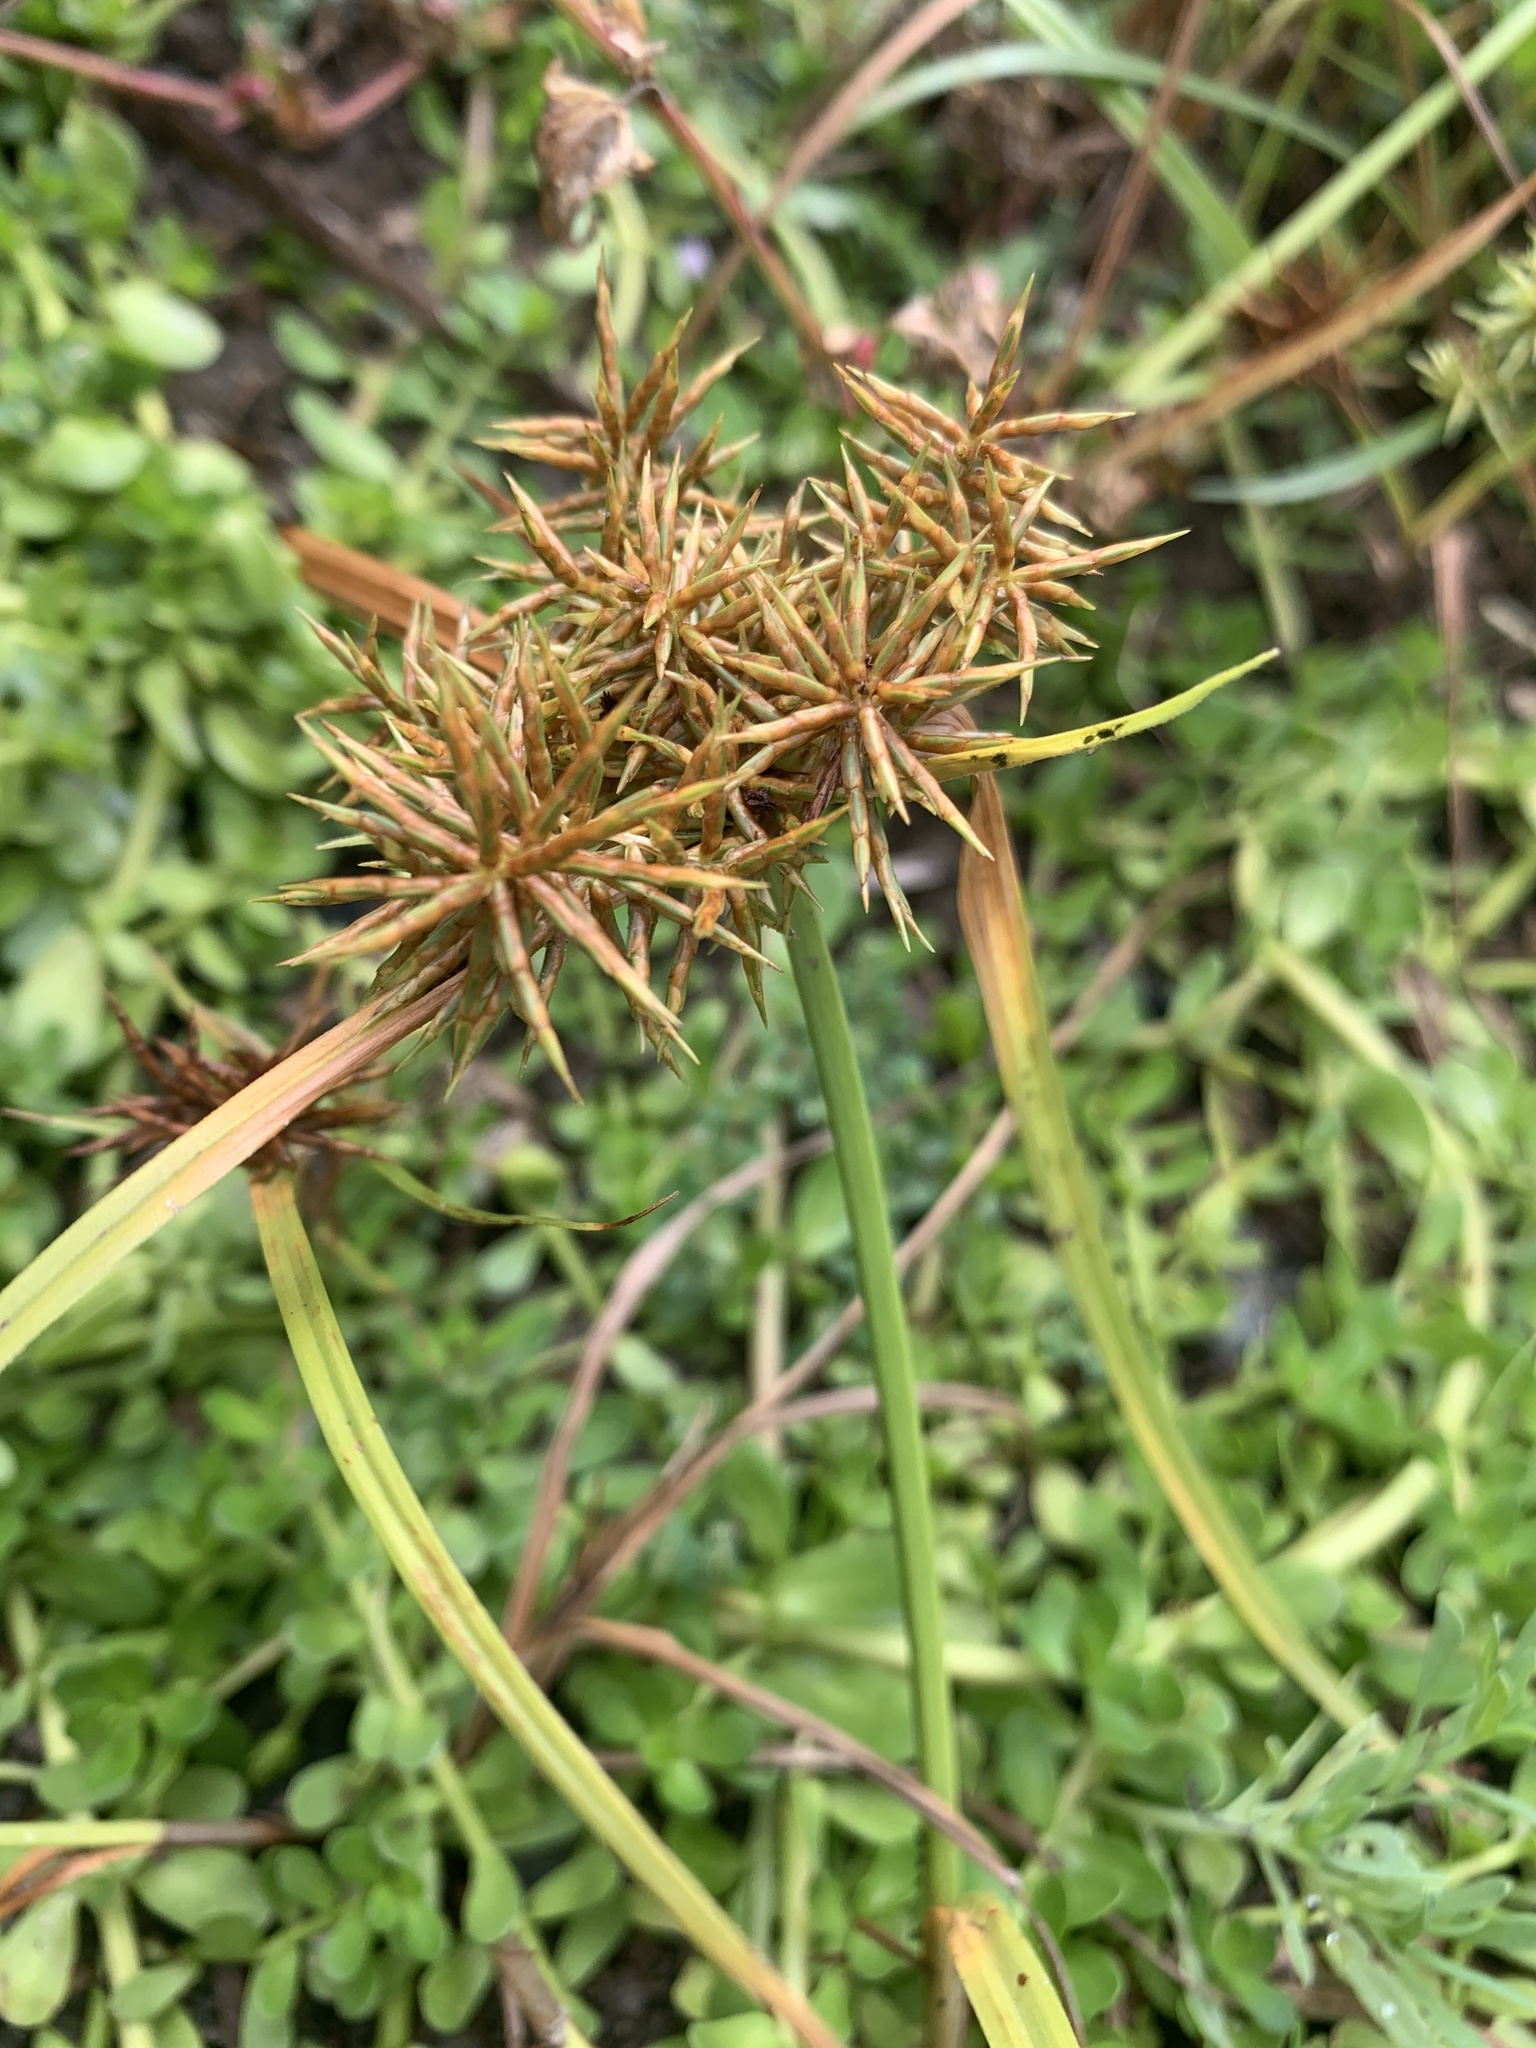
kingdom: Plantae
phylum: Tracheophyta
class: Liliopsida
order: Poales
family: Cyperaceae
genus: Cyperus
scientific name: Cyperus odoratus
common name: Fragrant flatsedge
